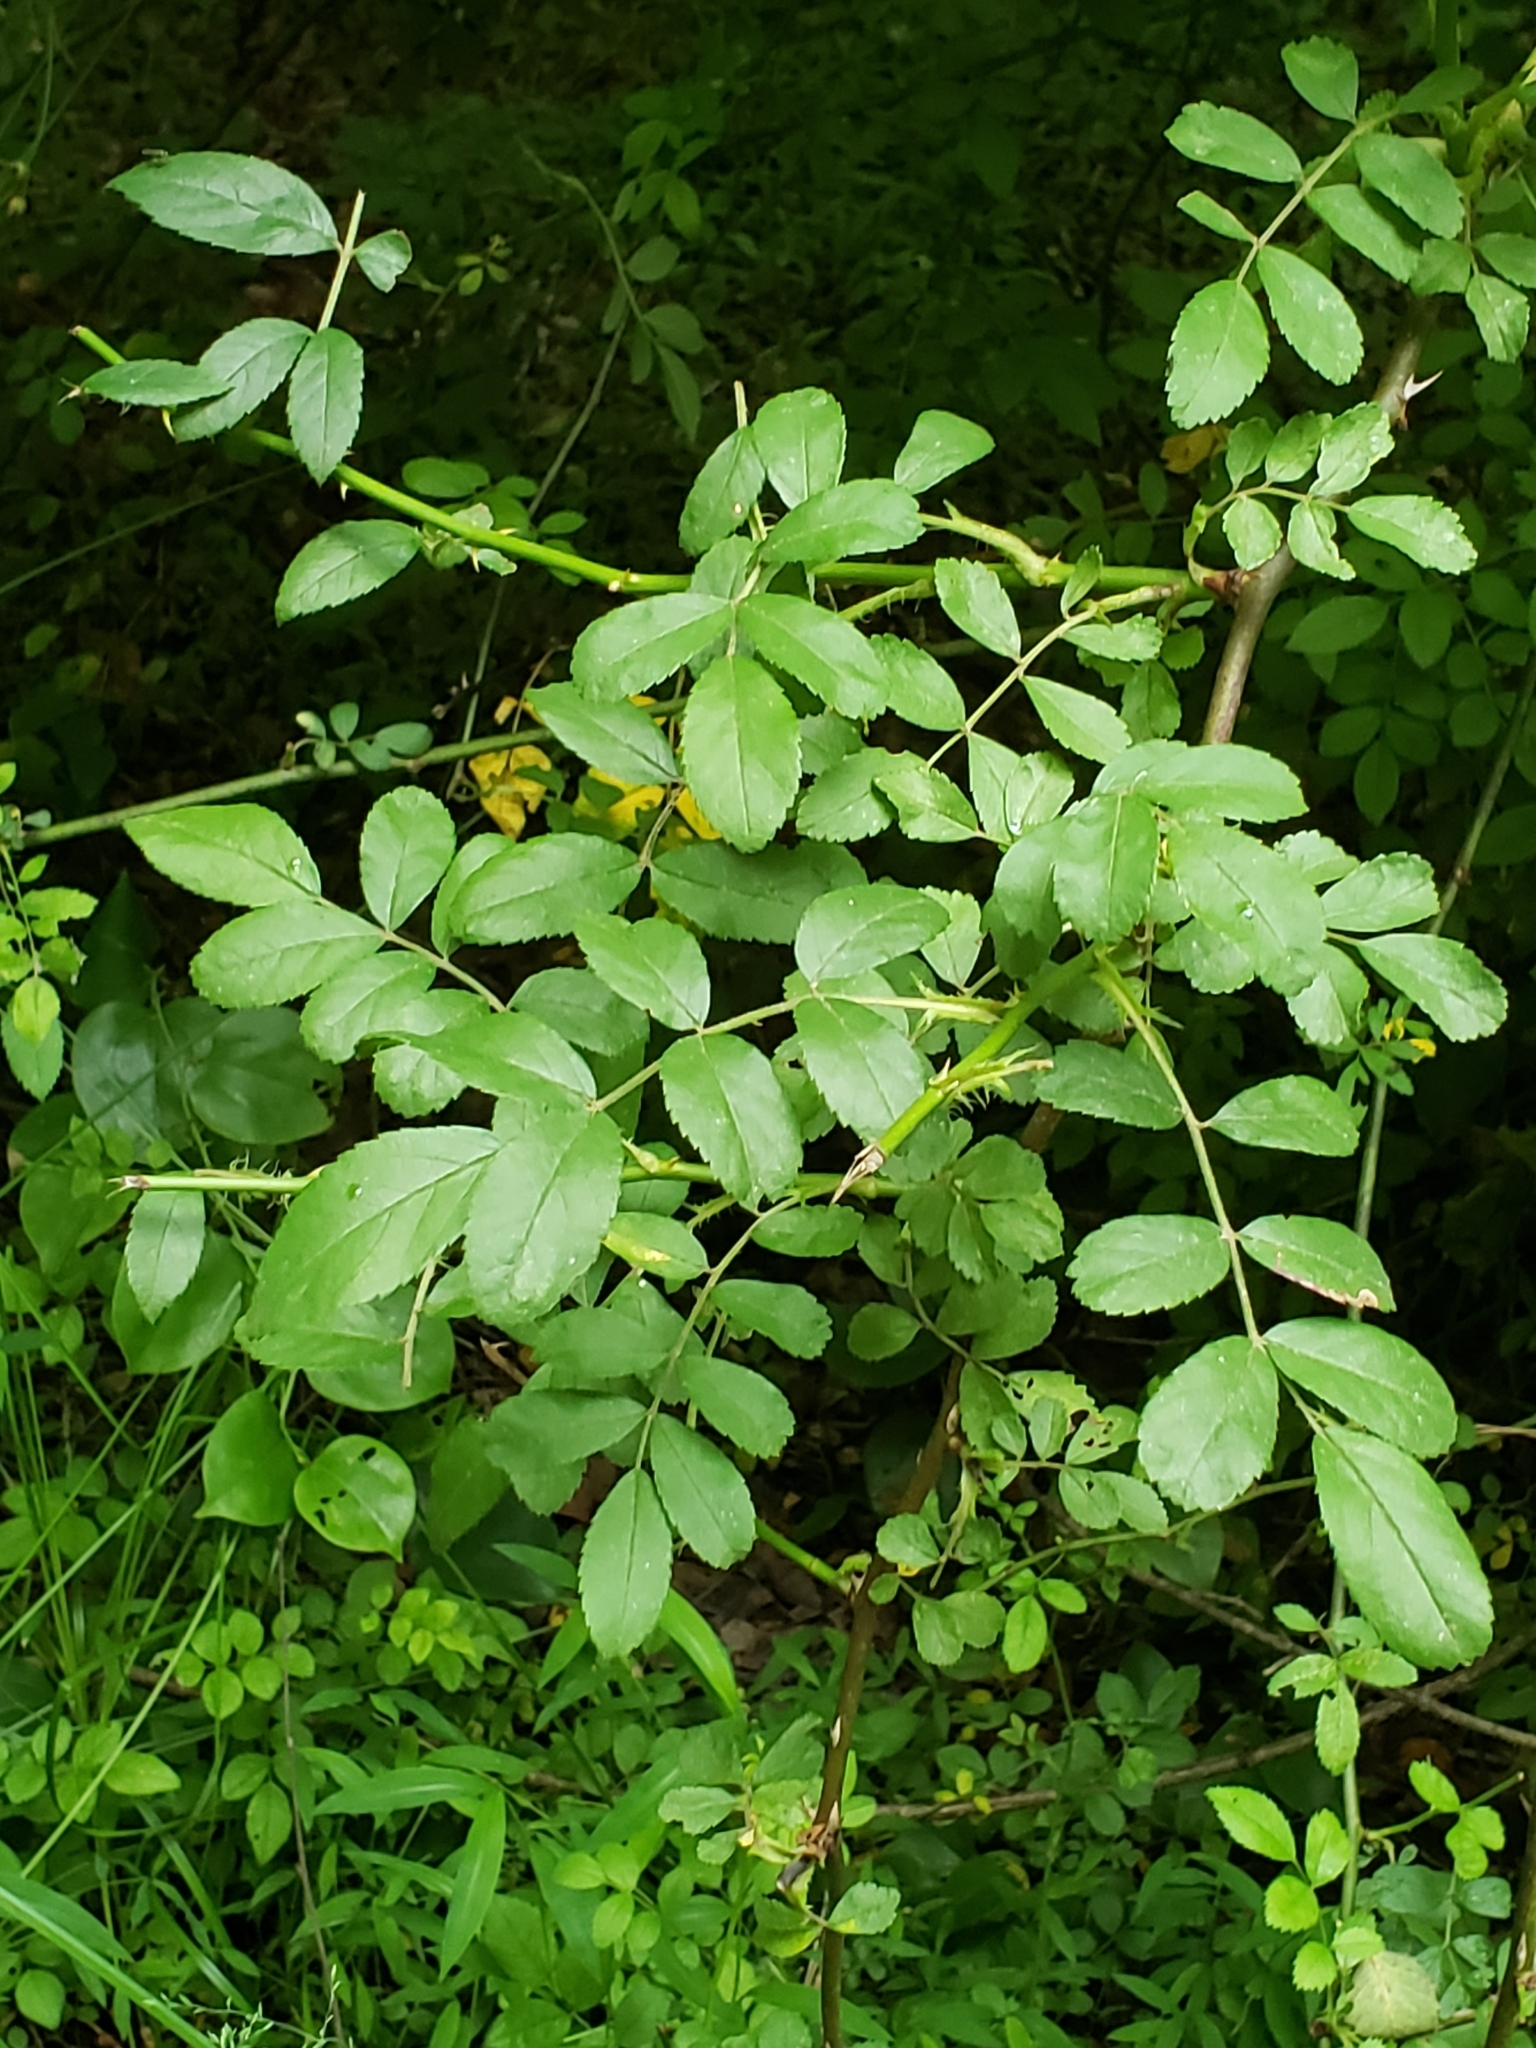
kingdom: Plantae
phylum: Tracheophyta
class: Magnoliopsida
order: Rosales
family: Rosaceae
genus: Rosa
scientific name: Rosa multiflora
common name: Multiflora rose
